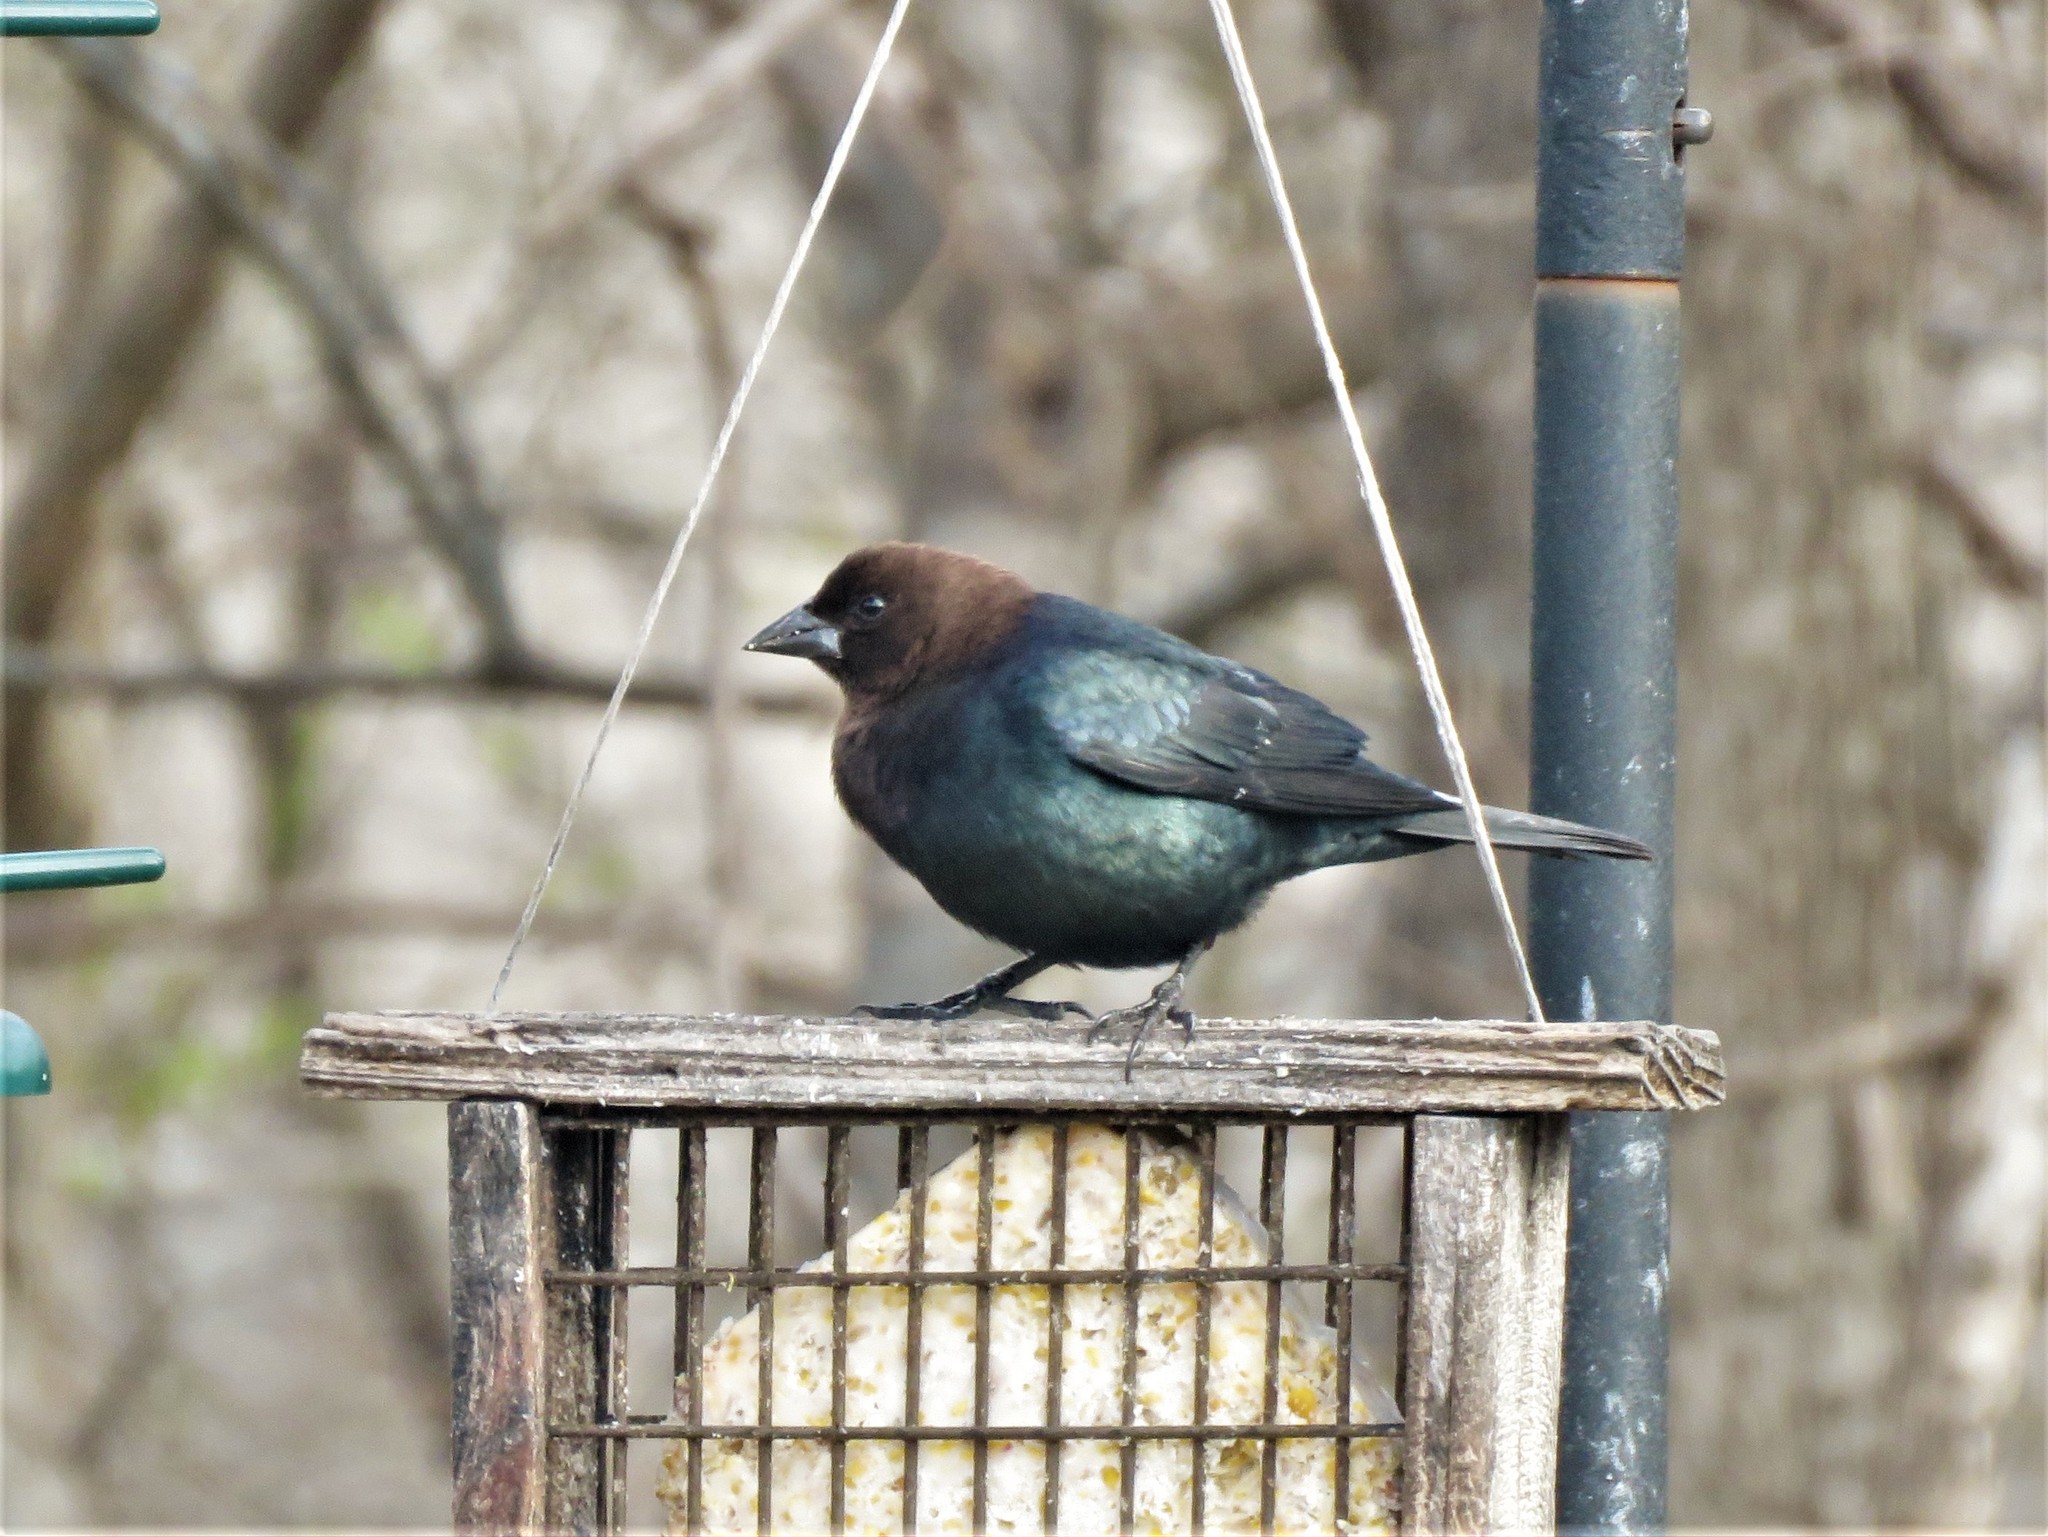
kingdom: Animalia
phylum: Chordata
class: Aves
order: Passeriformes
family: Icteridae
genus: Molothrus
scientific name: Molothrus ater
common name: Brown-headed cowbird
